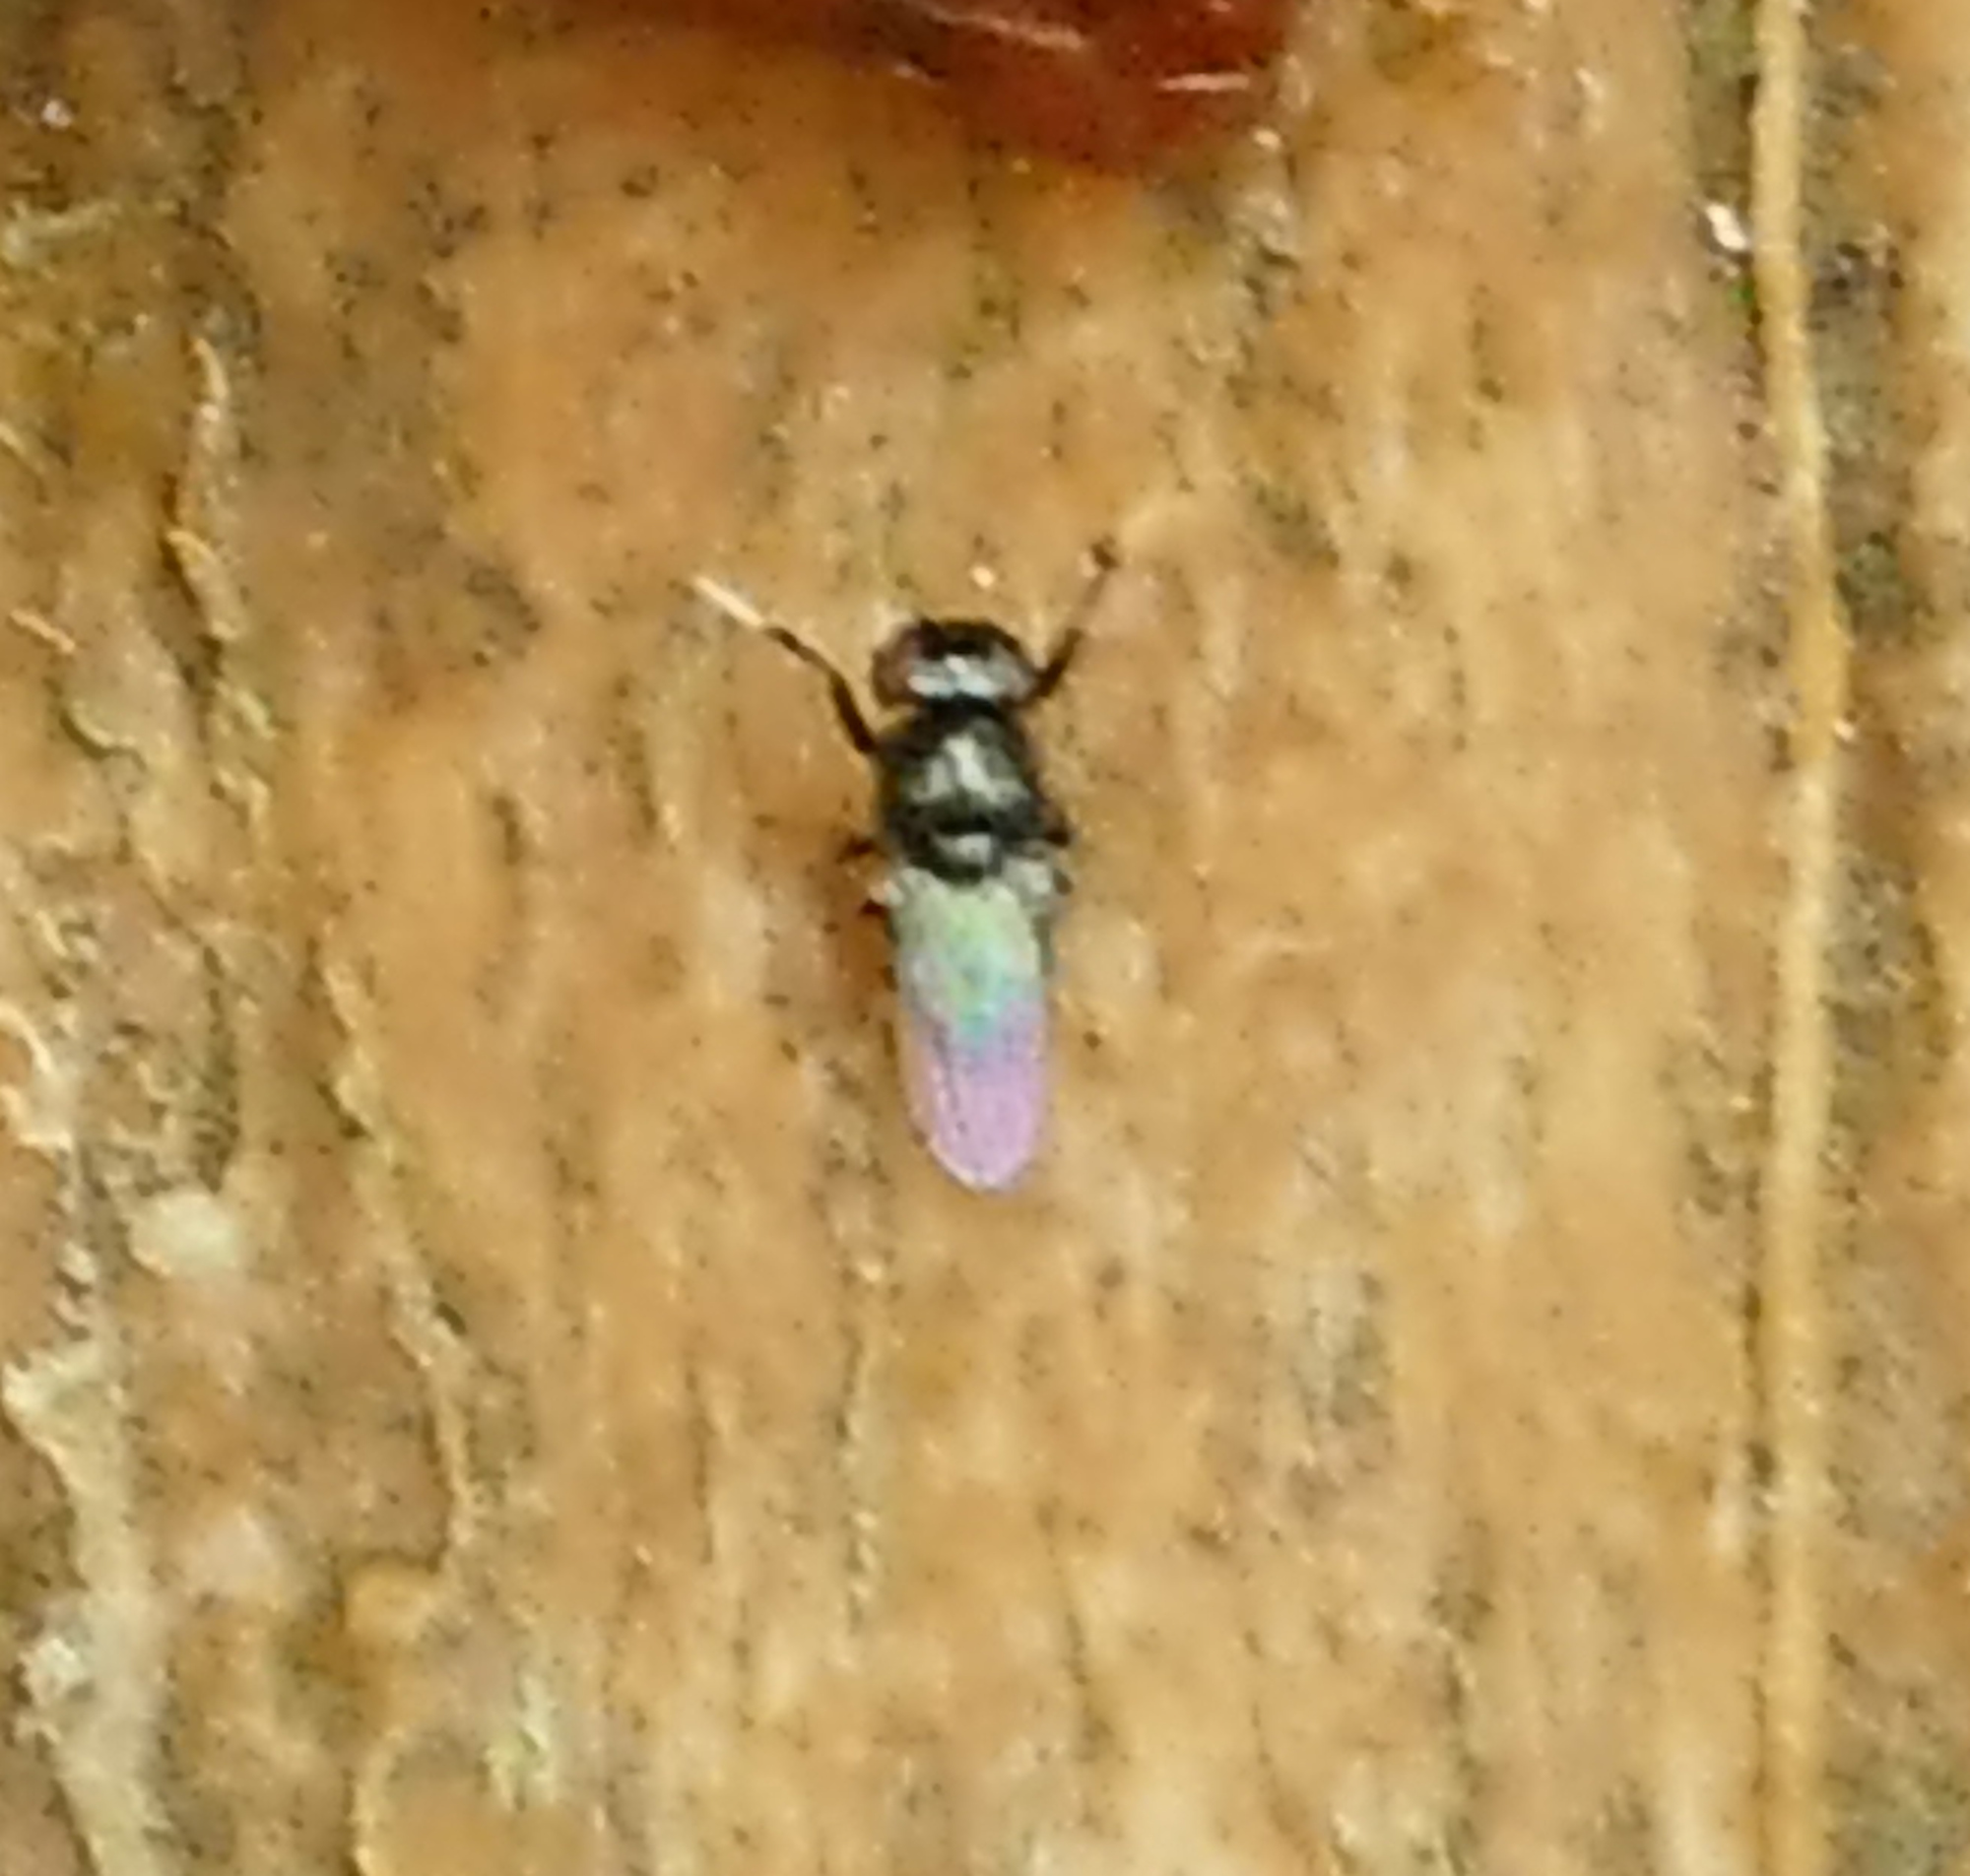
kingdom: Animalia
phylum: Arthropoda
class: Insecta
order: Diptera
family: Ephydridae
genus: Athyroglossa
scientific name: Athyroglossa glaphyropus
